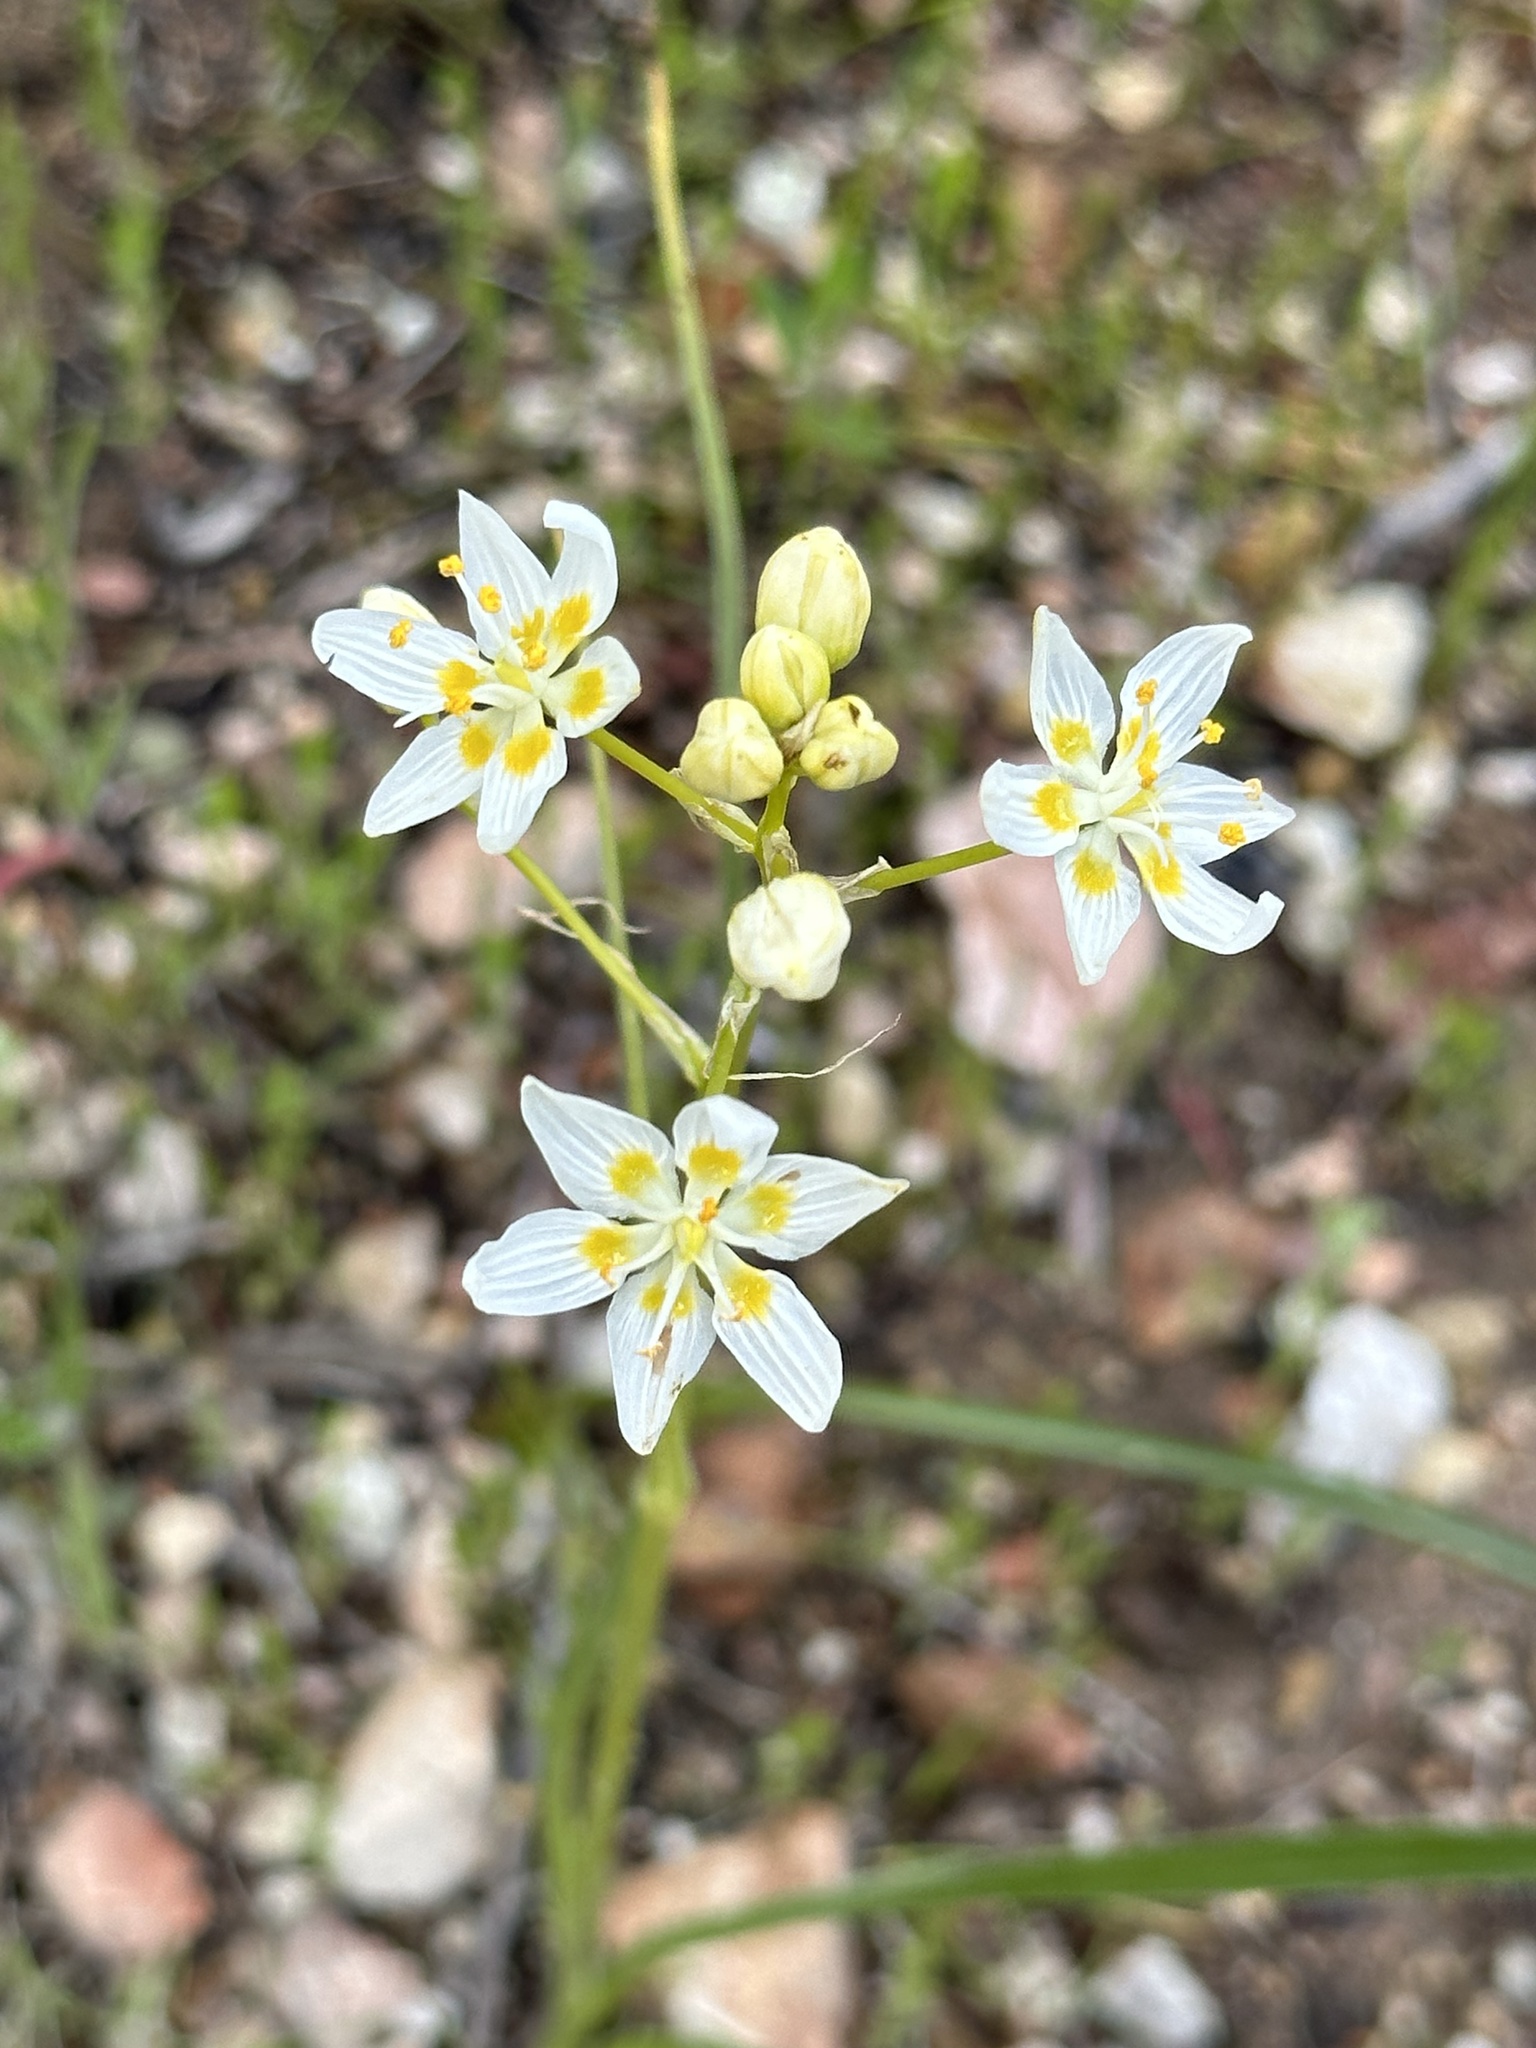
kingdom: Plantae
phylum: Tracheophyta
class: Liliopsida
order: Liliales
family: Melanthiaceae
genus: Toxicoscordion
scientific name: Toxicoscordion fremontii
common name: Fremont's death camas
